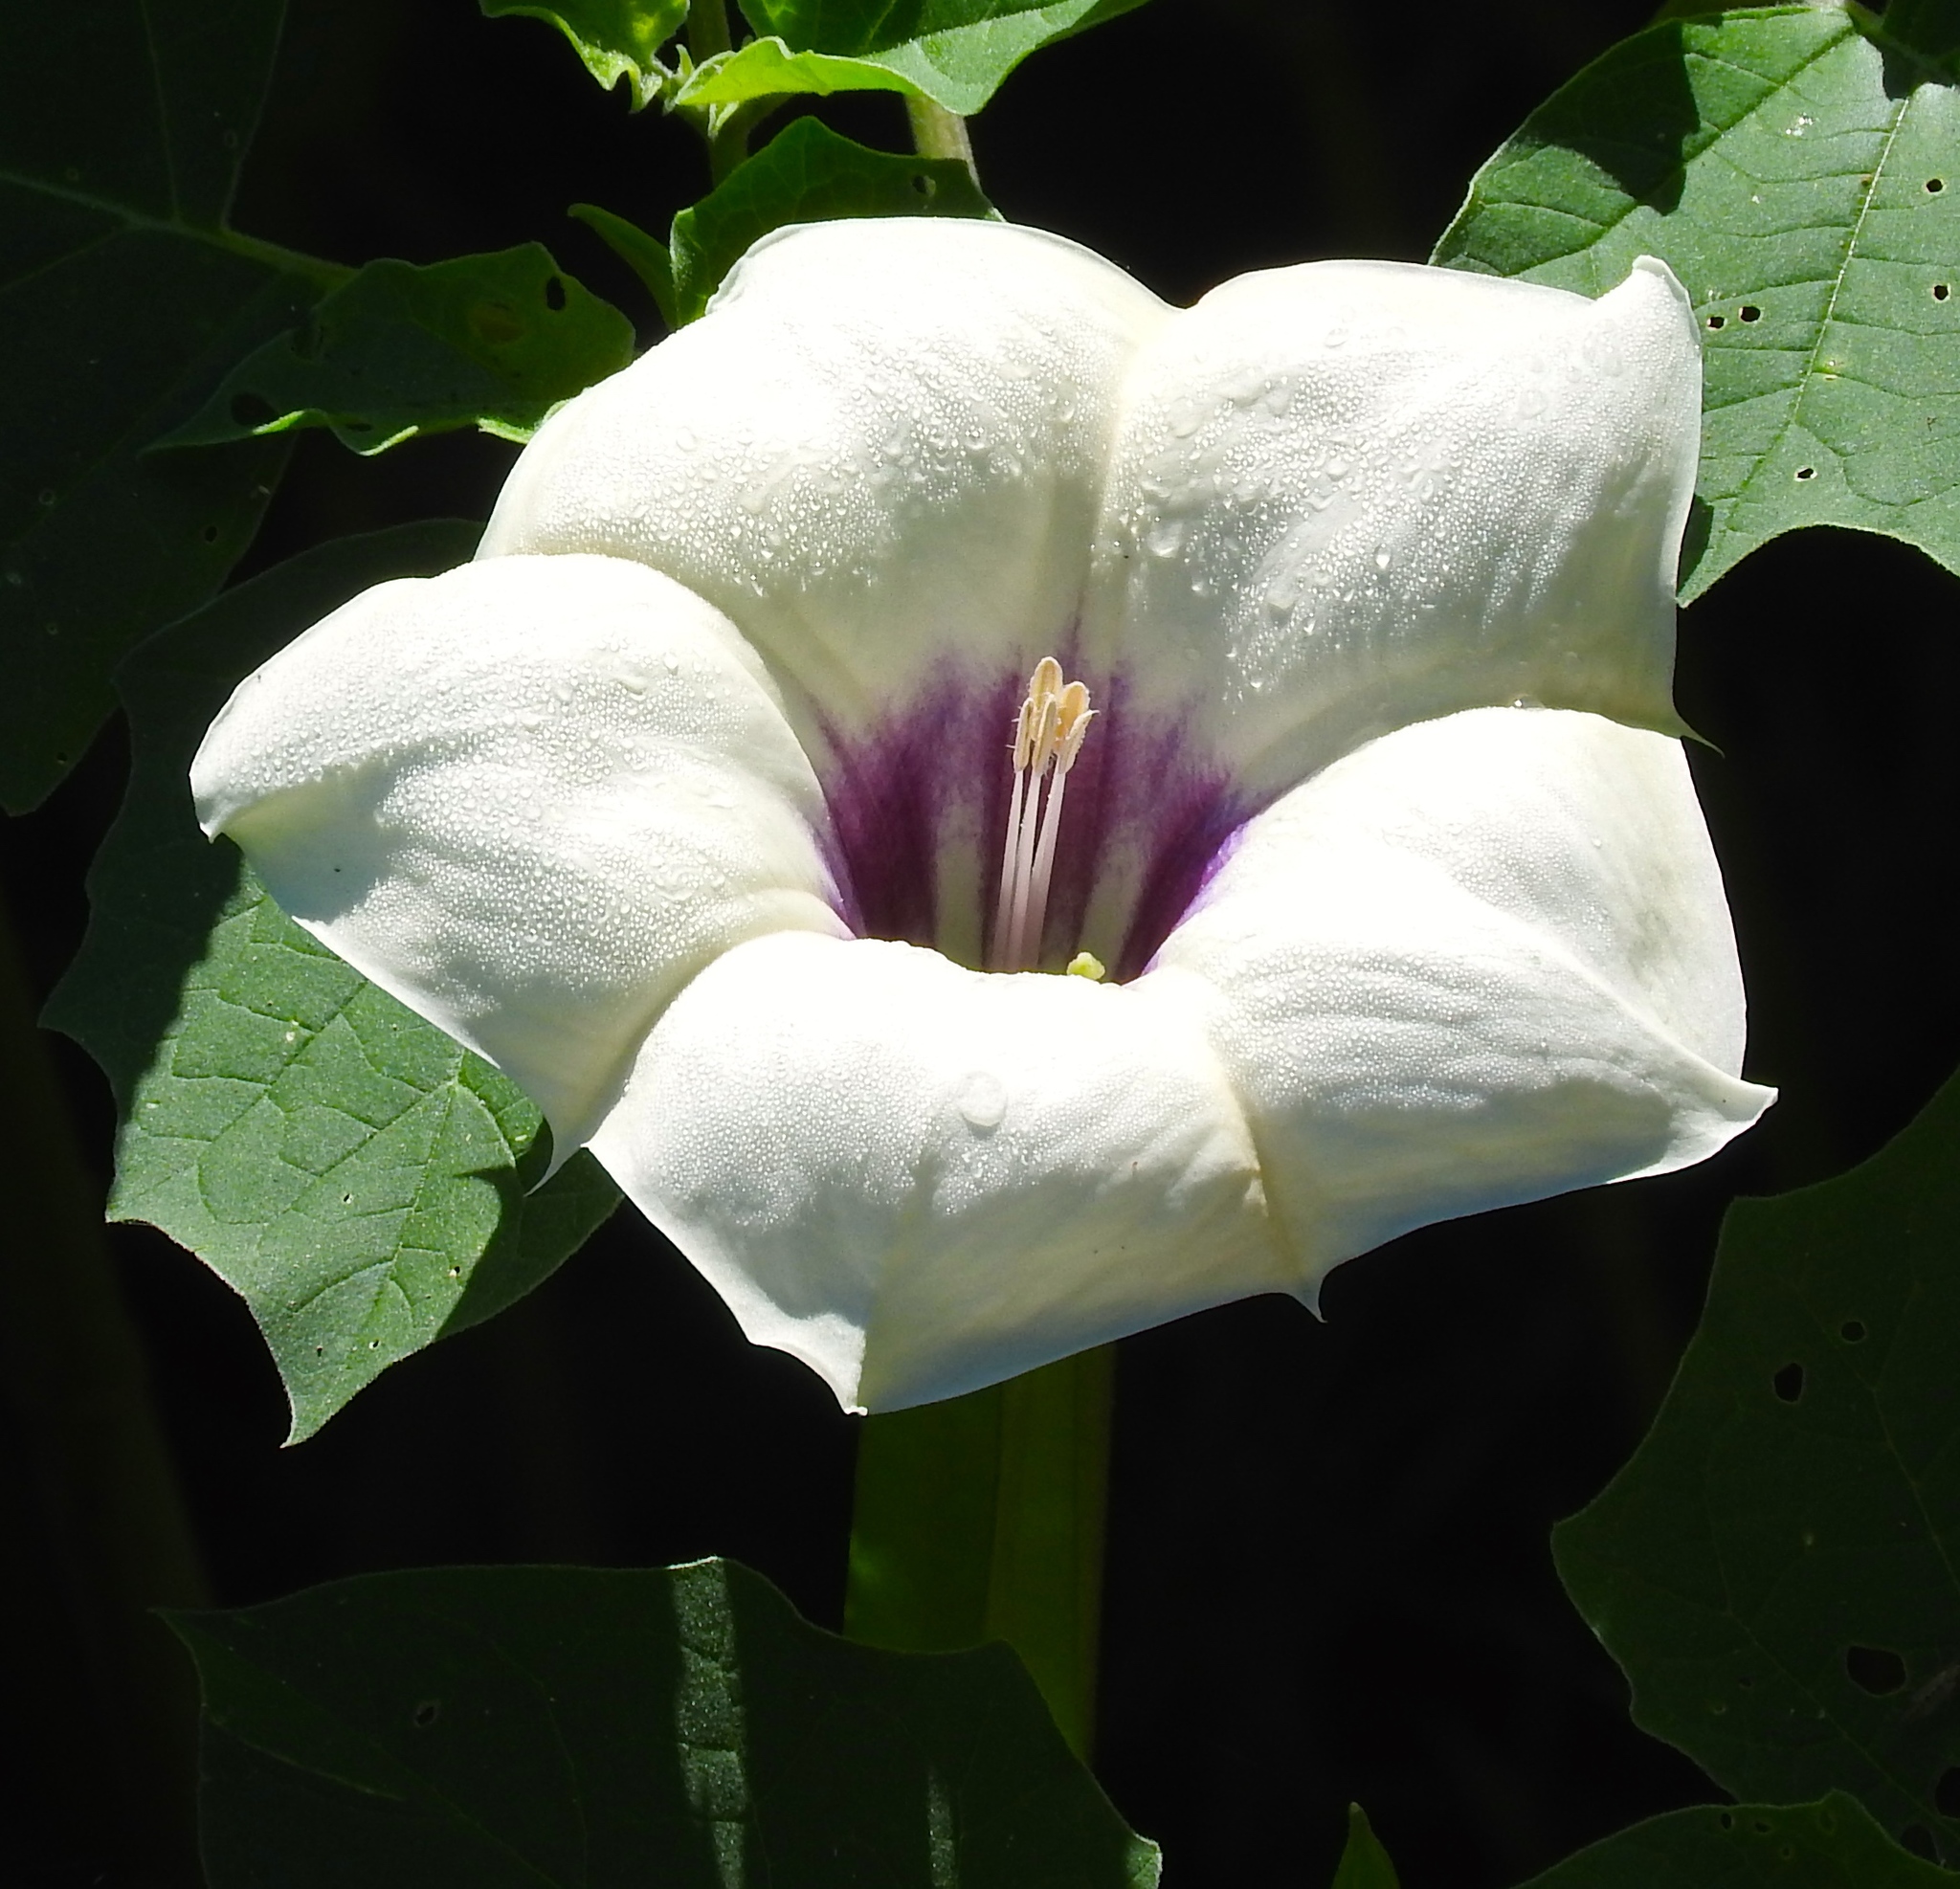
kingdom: Plantae
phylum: Tracheophyta
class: Magnoliopsida
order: Solanales
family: Solanaceae
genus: Datura
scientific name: Datura discolor
